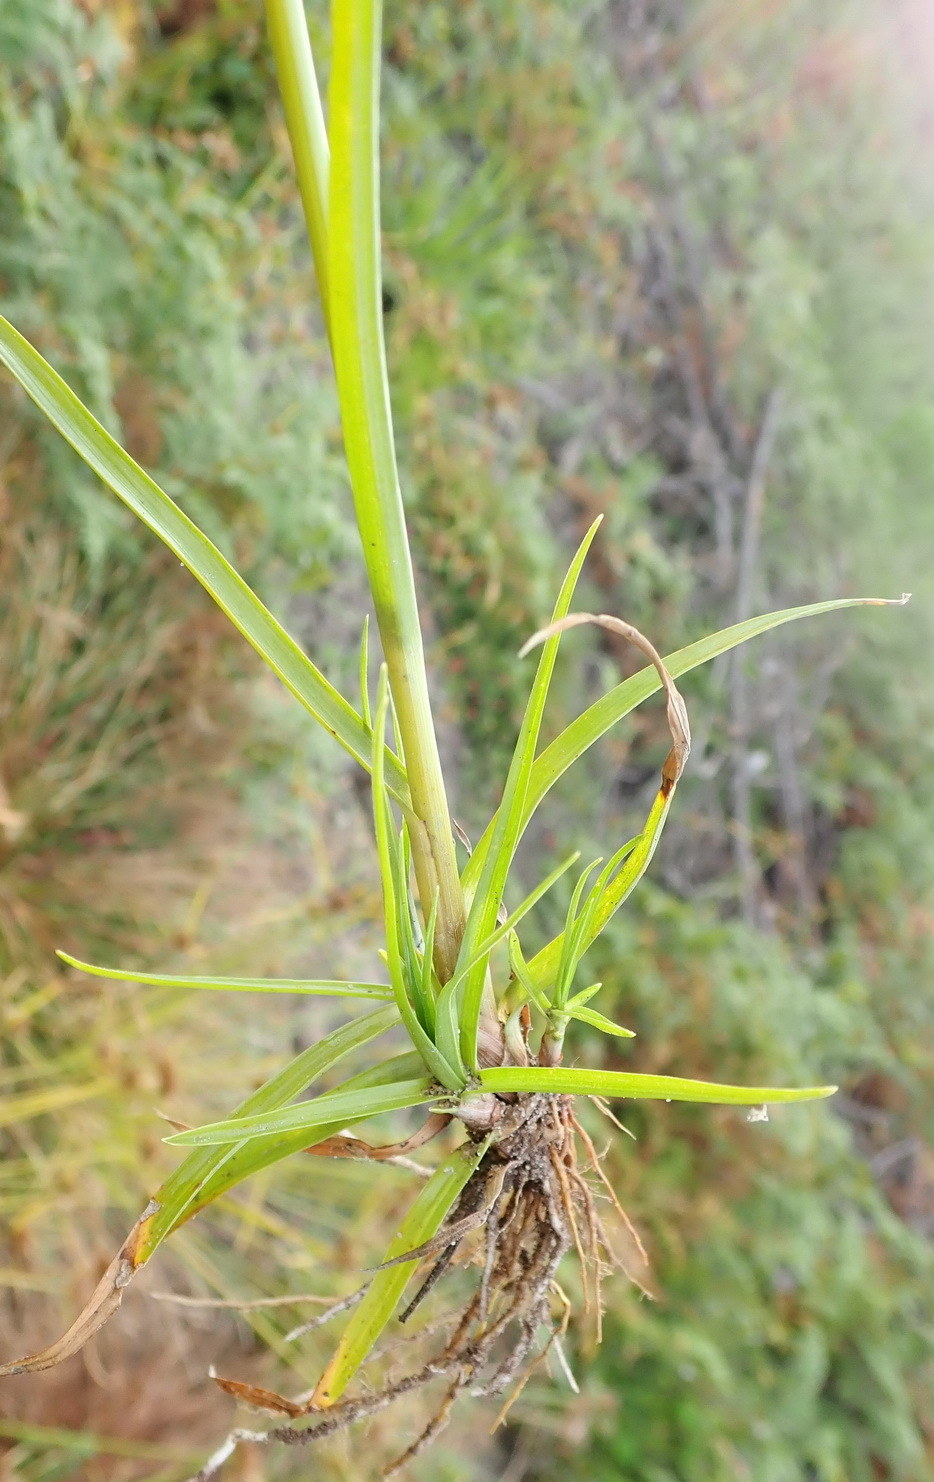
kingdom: Plantae
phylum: Tracheophyta
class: Liliopsida
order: Poales
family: Cyperaceae
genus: Cyperus
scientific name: Cyperus polystachyos
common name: Bunchy flat sedge
